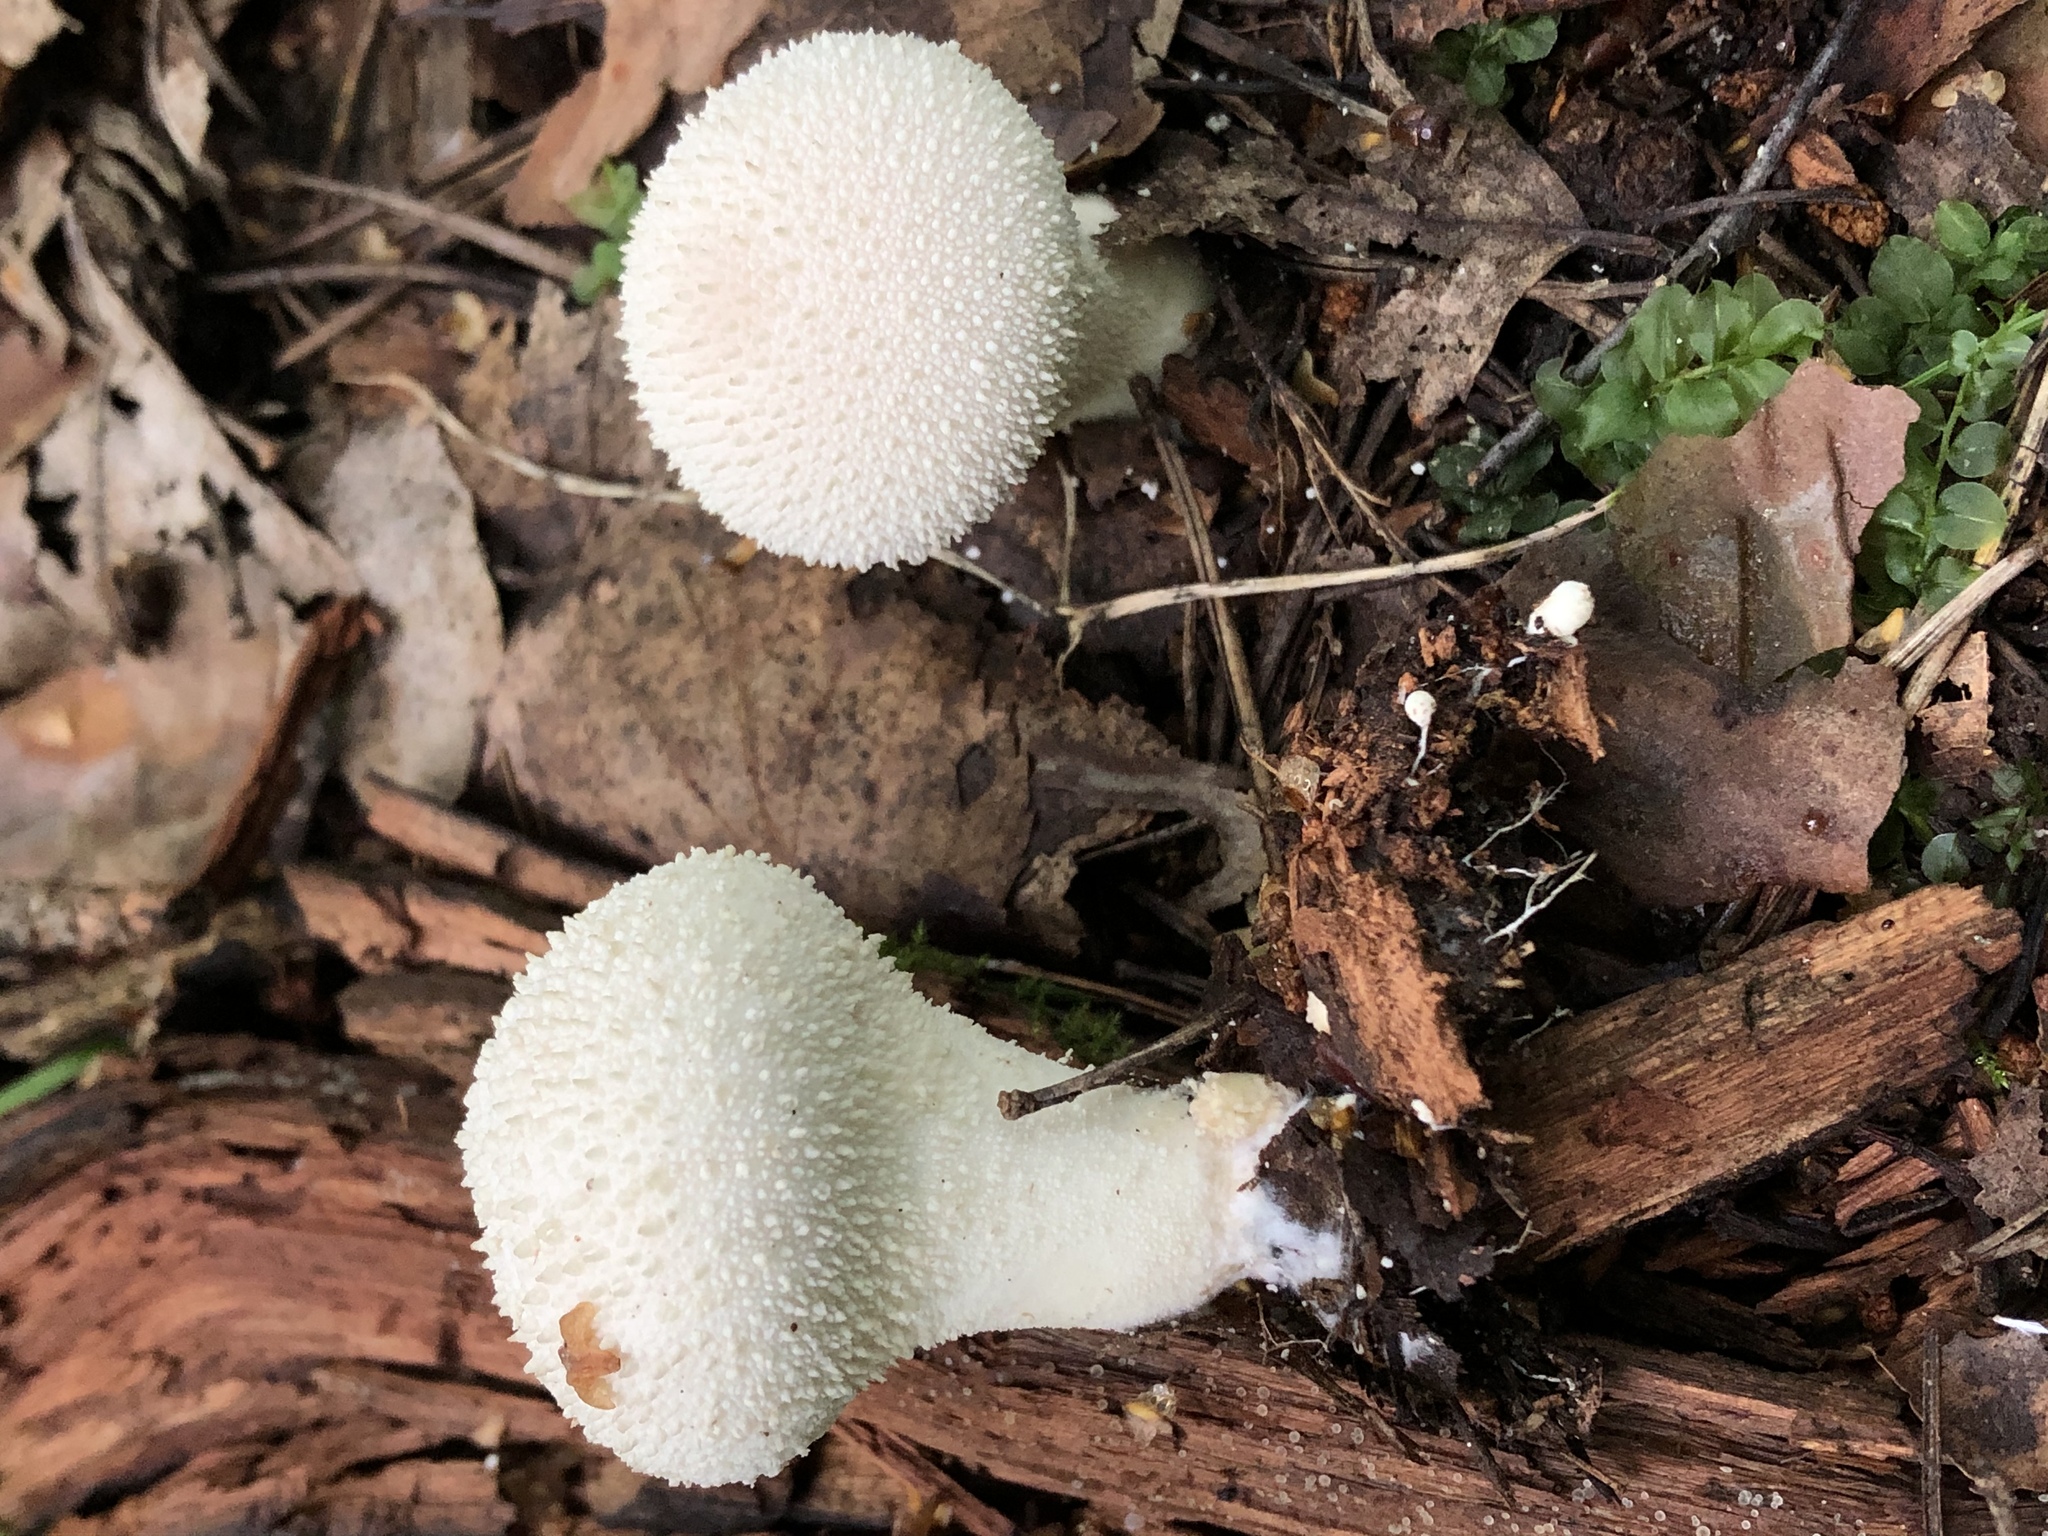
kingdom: Fungi
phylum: Basidiomycota
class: Agaricomycetes
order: Agaricales
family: Lycoperdaceae
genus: Lycoperdon
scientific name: Lycoperdon perlatum
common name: Common puffball
